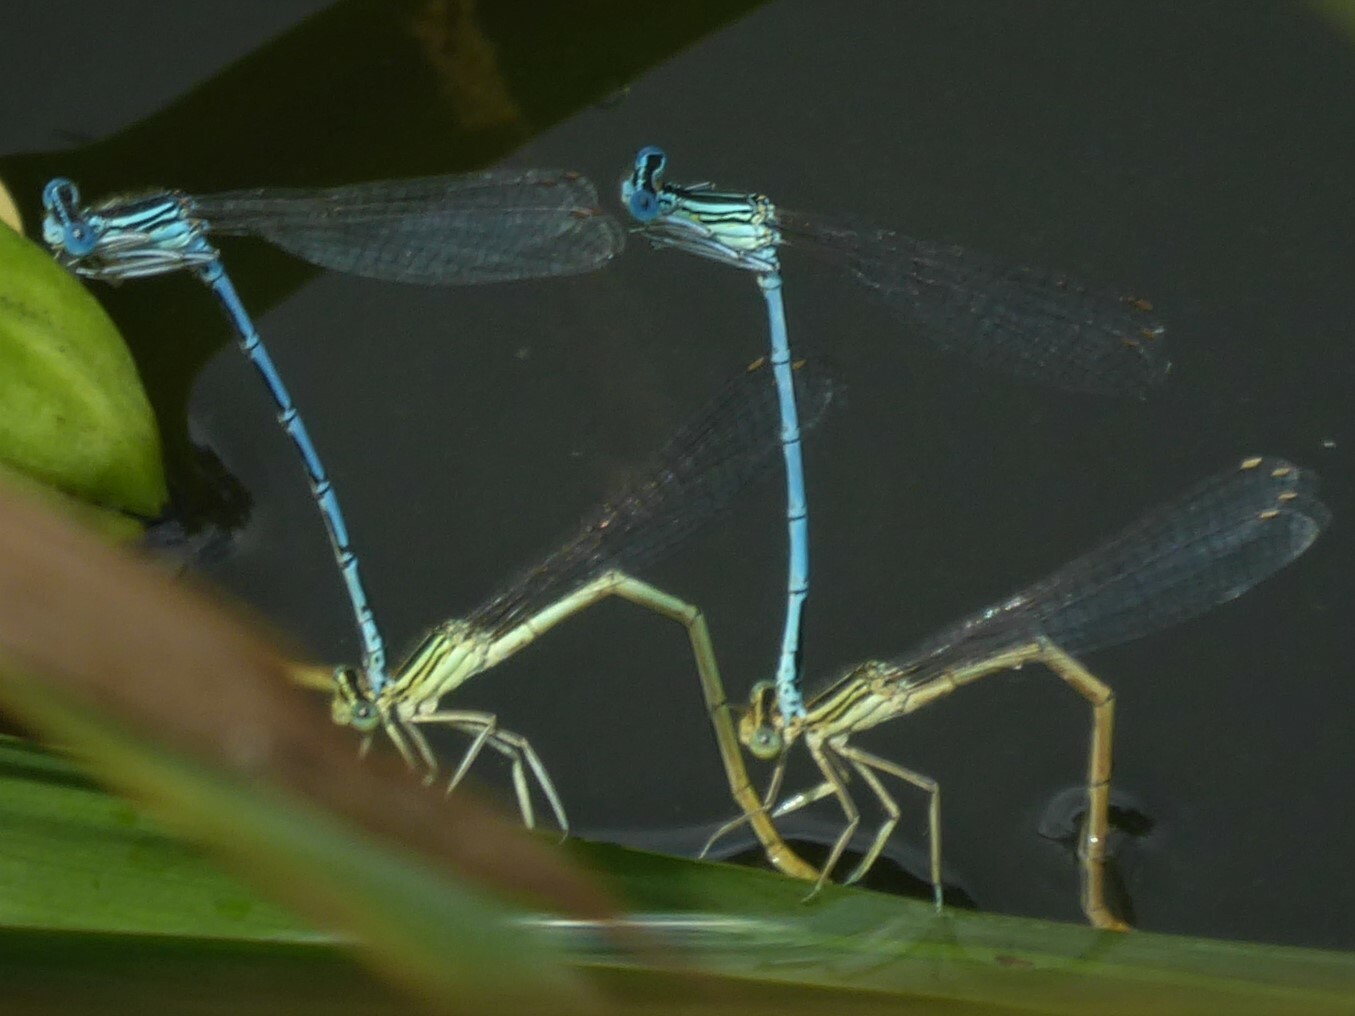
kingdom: Animalia
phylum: Arthropoda
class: Insecta
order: Odonata
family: Platycnemididae
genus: Platycnemis
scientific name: Platycnemis pennipes
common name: White-legged damselfly
